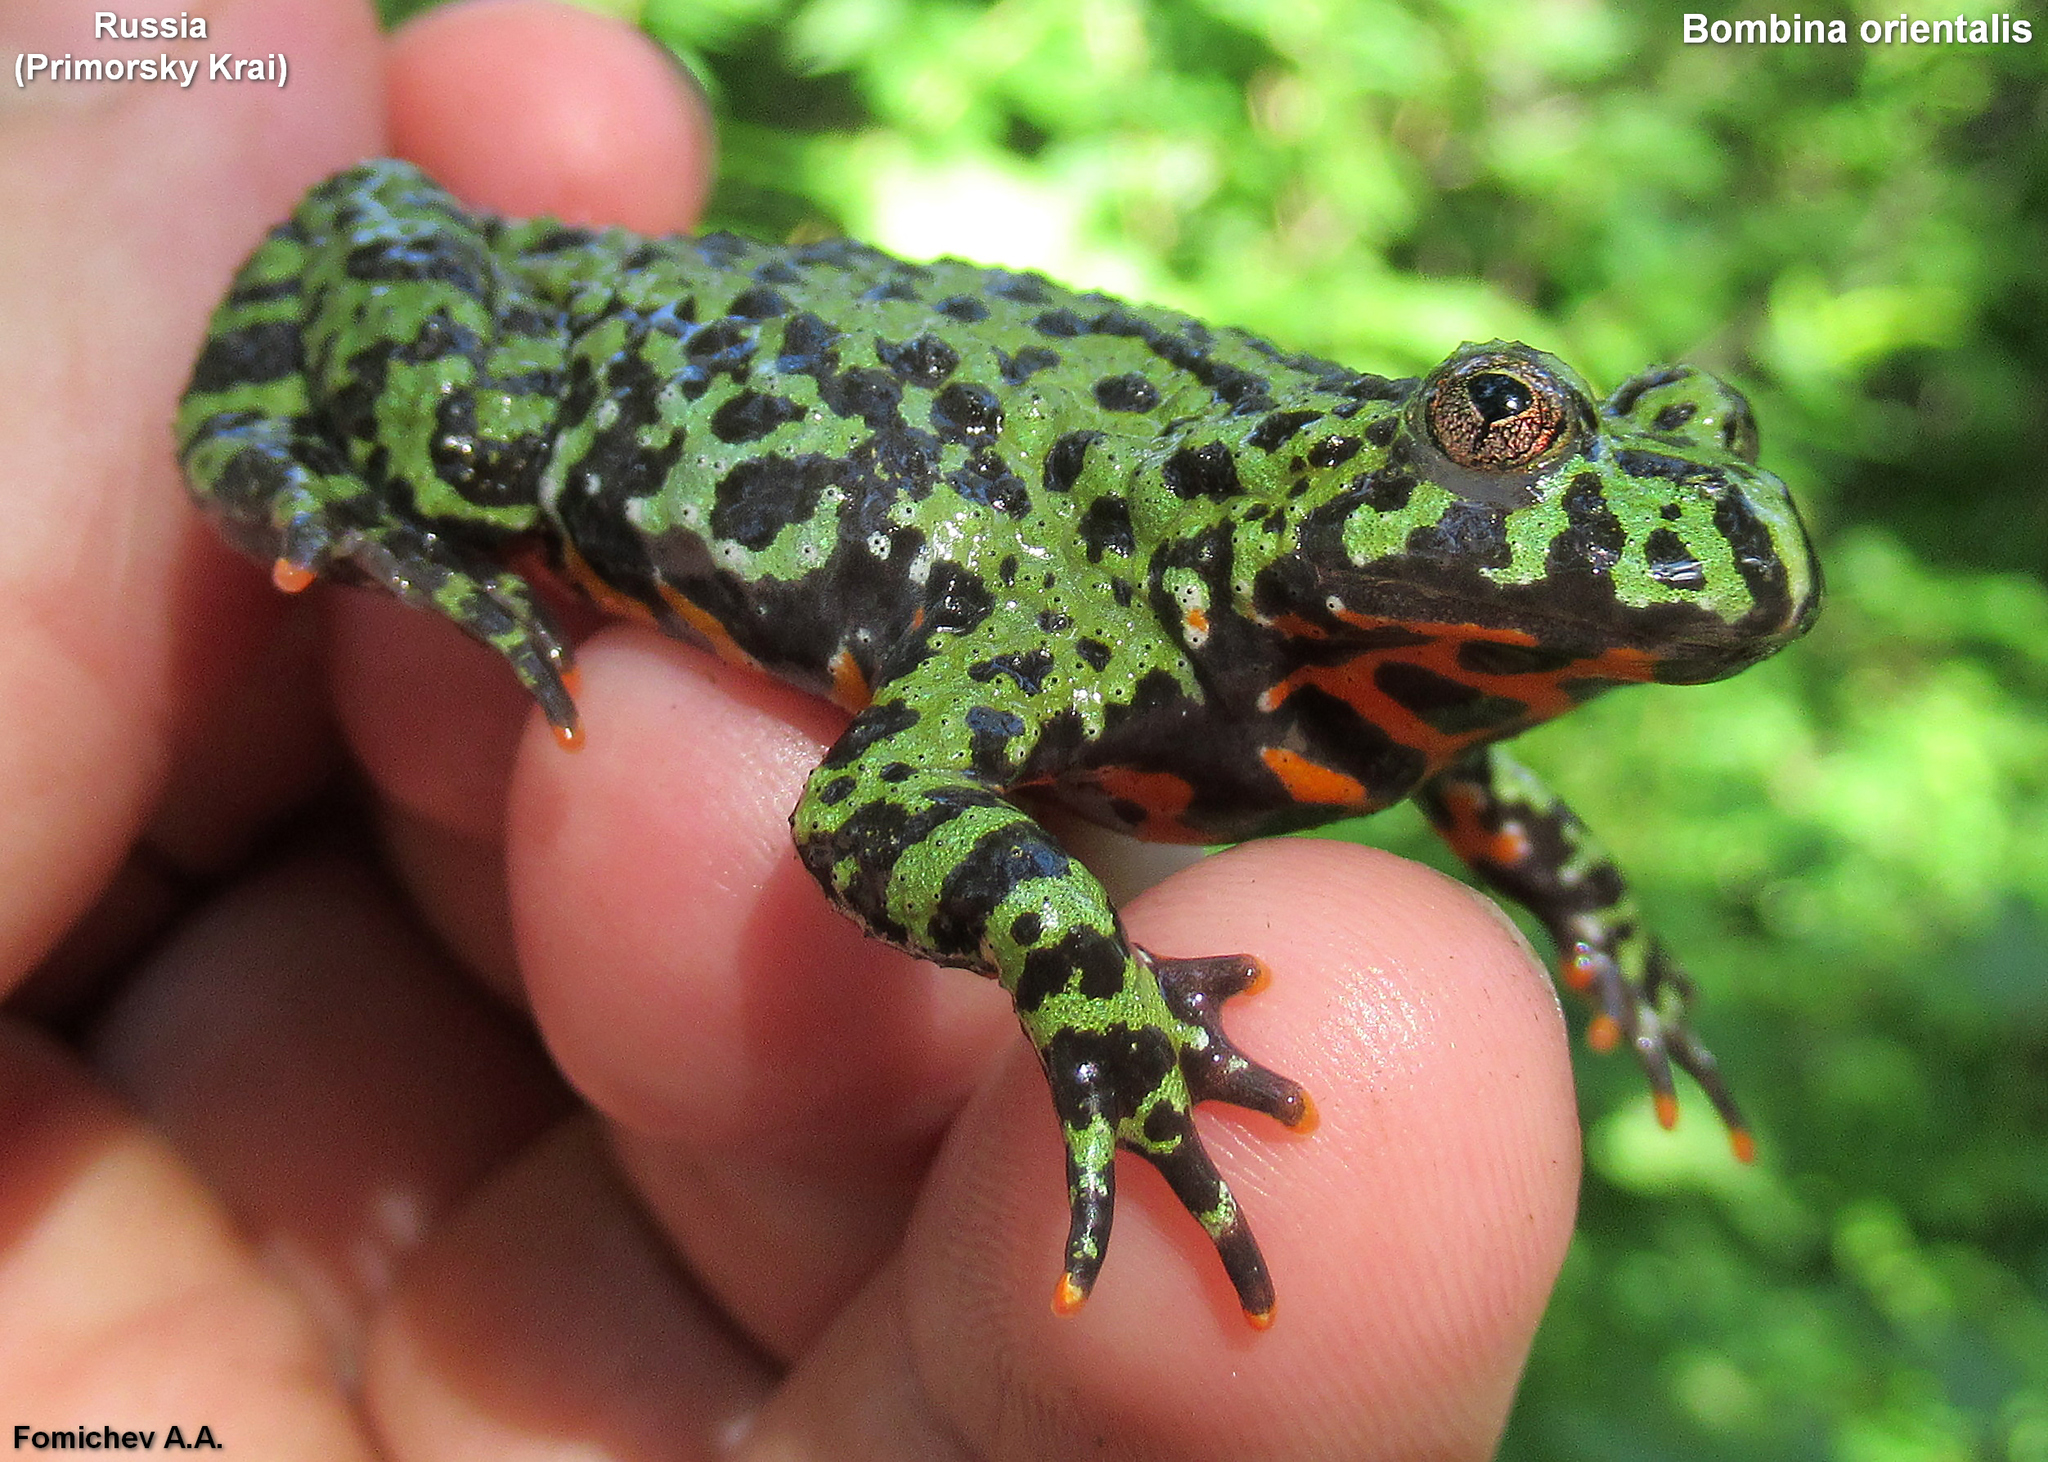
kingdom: Animalia
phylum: Chordata
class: Amphibia
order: Anura
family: Bombinatoridae
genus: Bombina
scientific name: Bombina orientalis
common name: Oriental firebelly toad
